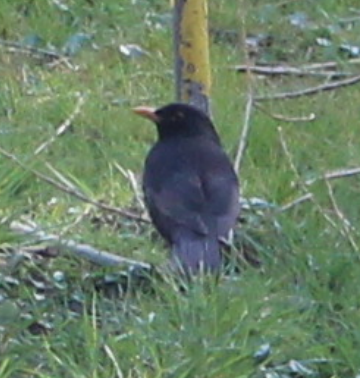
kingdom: Animalia
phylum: Chordata
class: Aves
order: Passeriformes
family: Turdidae
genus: Turdus
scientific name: Turdus merula
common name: Common blackbird
